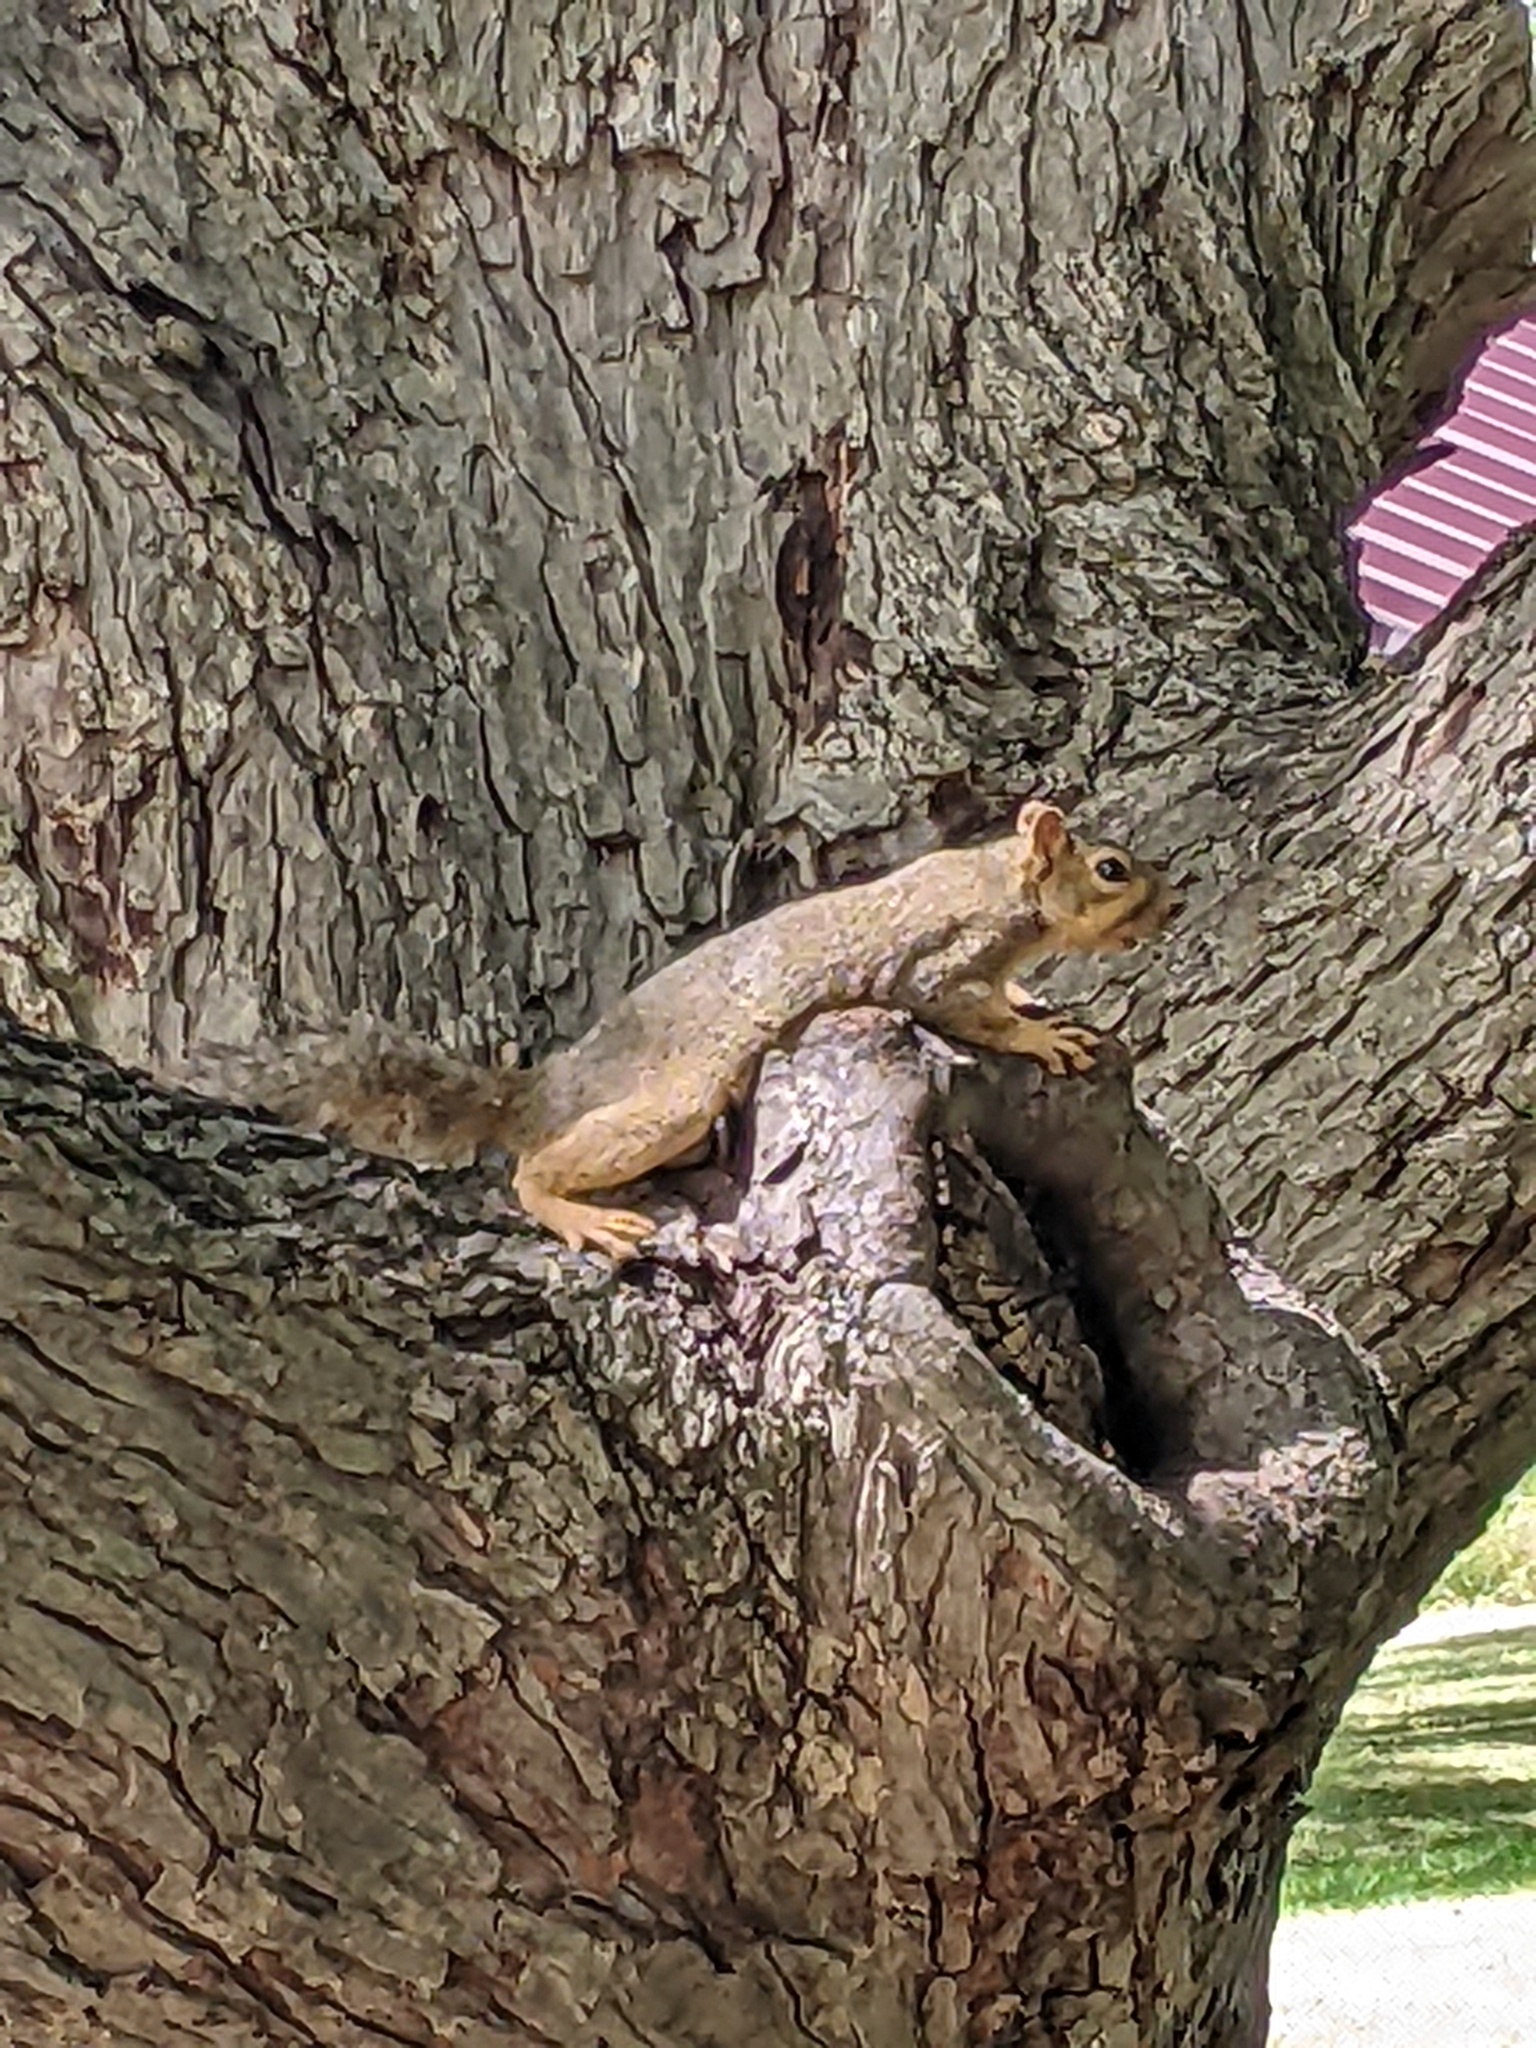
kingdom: Animalia
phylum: Chordata
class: Mammalia
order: Rodentia
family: Sciuridae
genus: Sciurus
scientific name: Sciurus niger
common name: Fox squirrel
